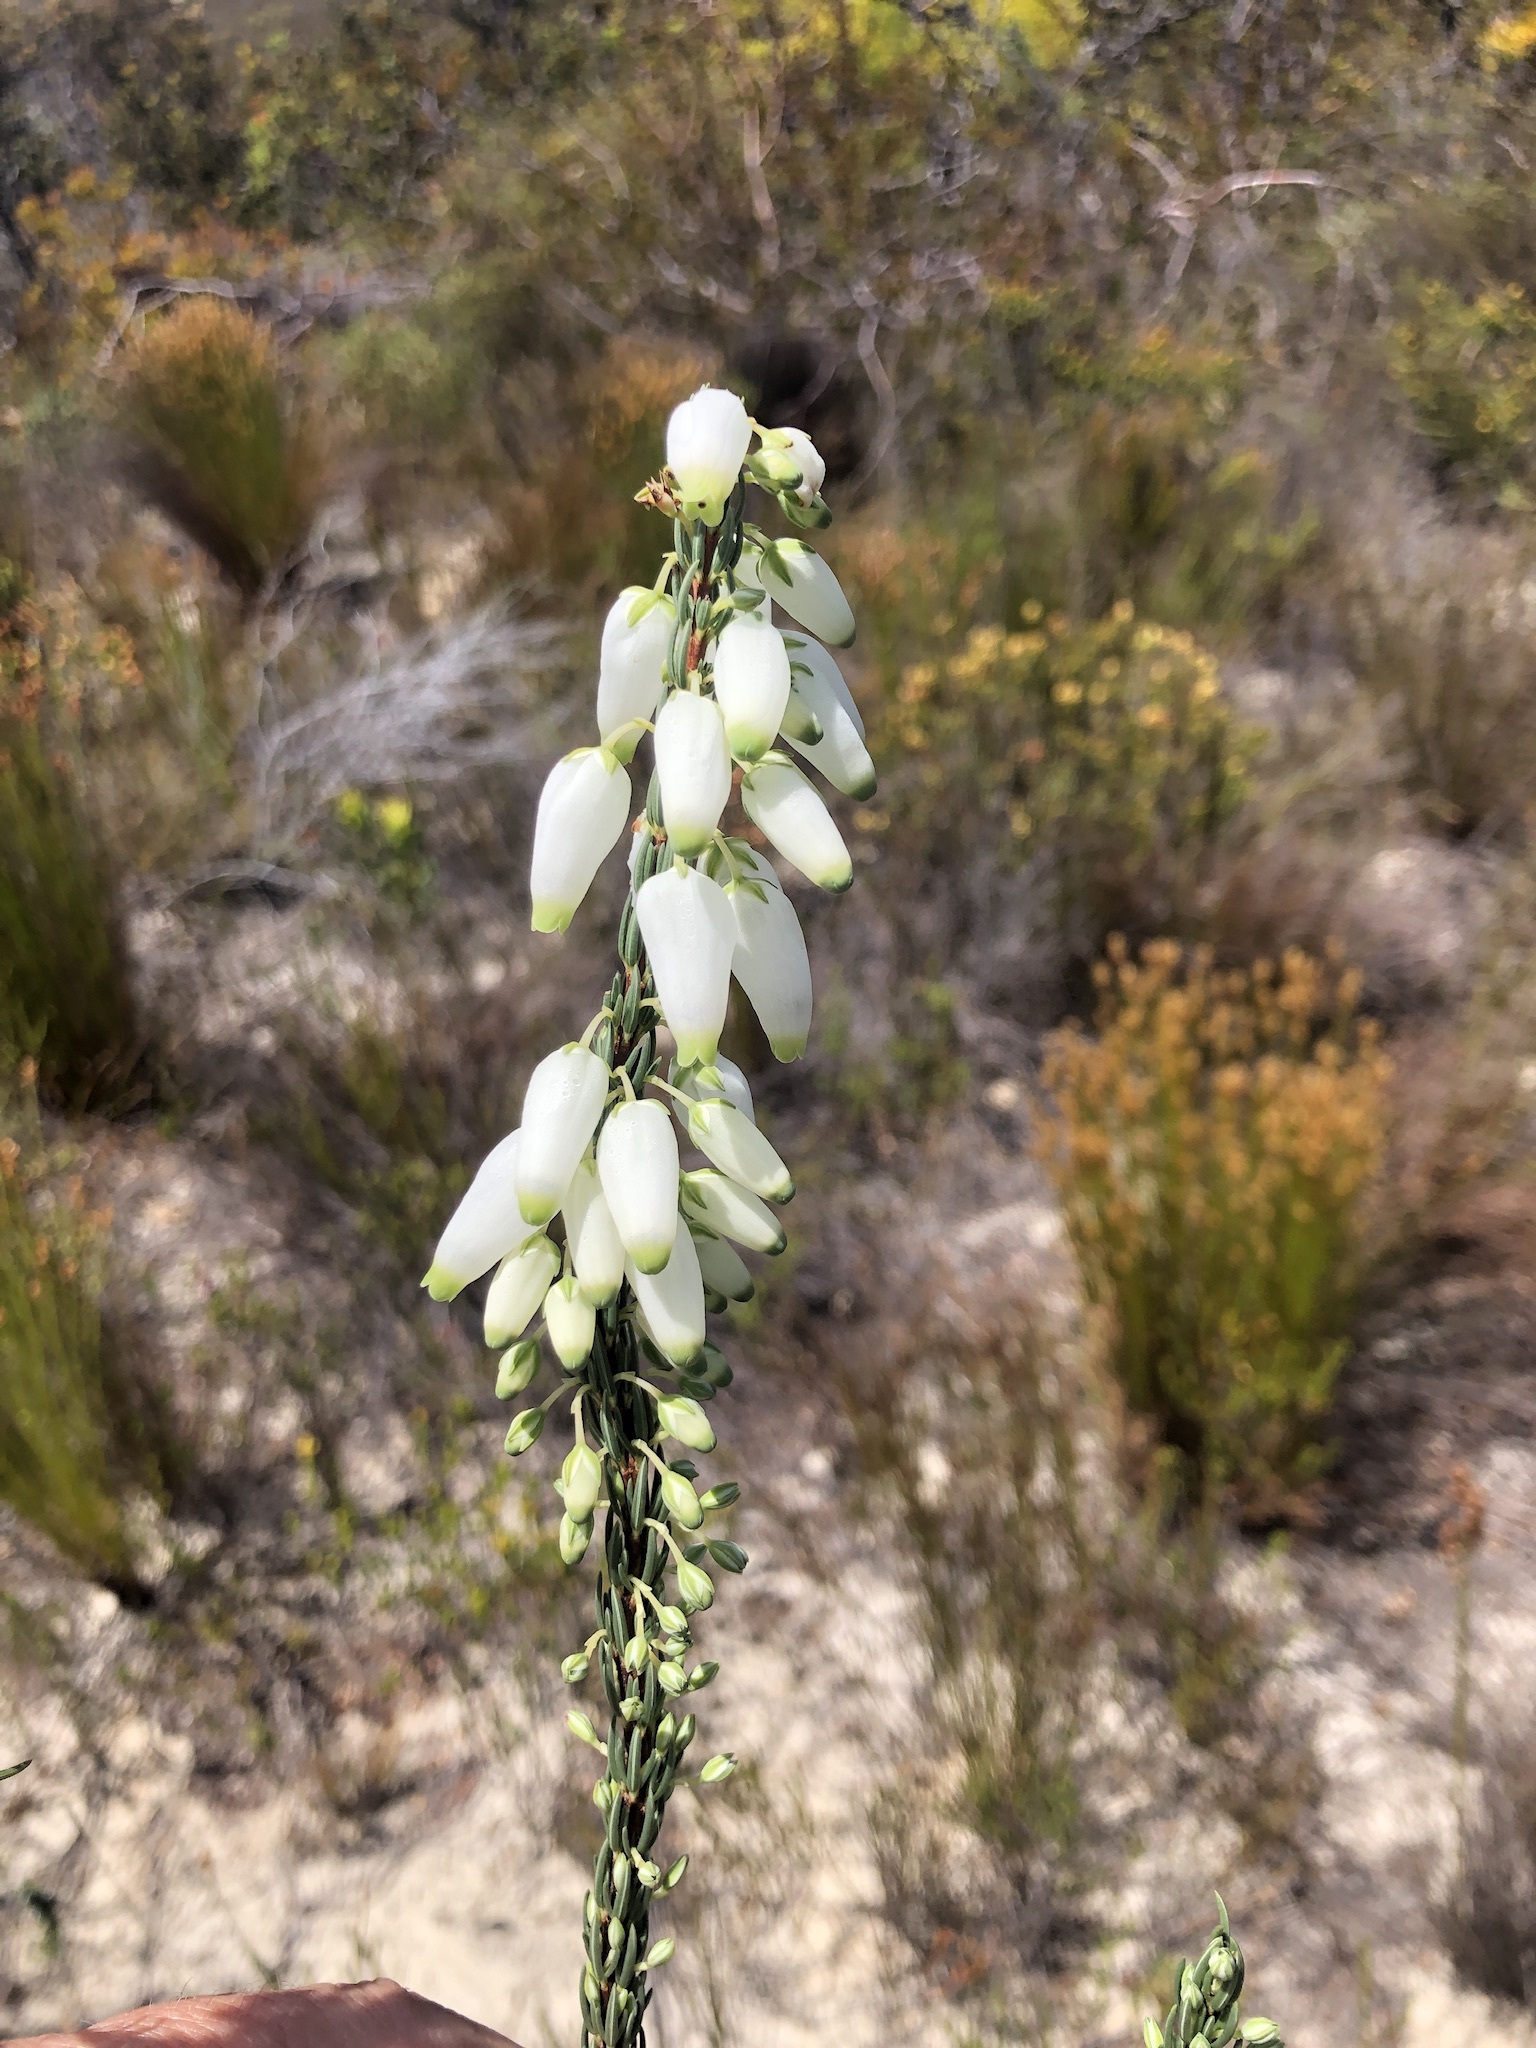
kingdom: Plantae
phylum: Tracheophyta
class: Magnoliopsida
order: Ericales
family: Ericaceae
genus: Erica
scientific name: Erica penduliflora
